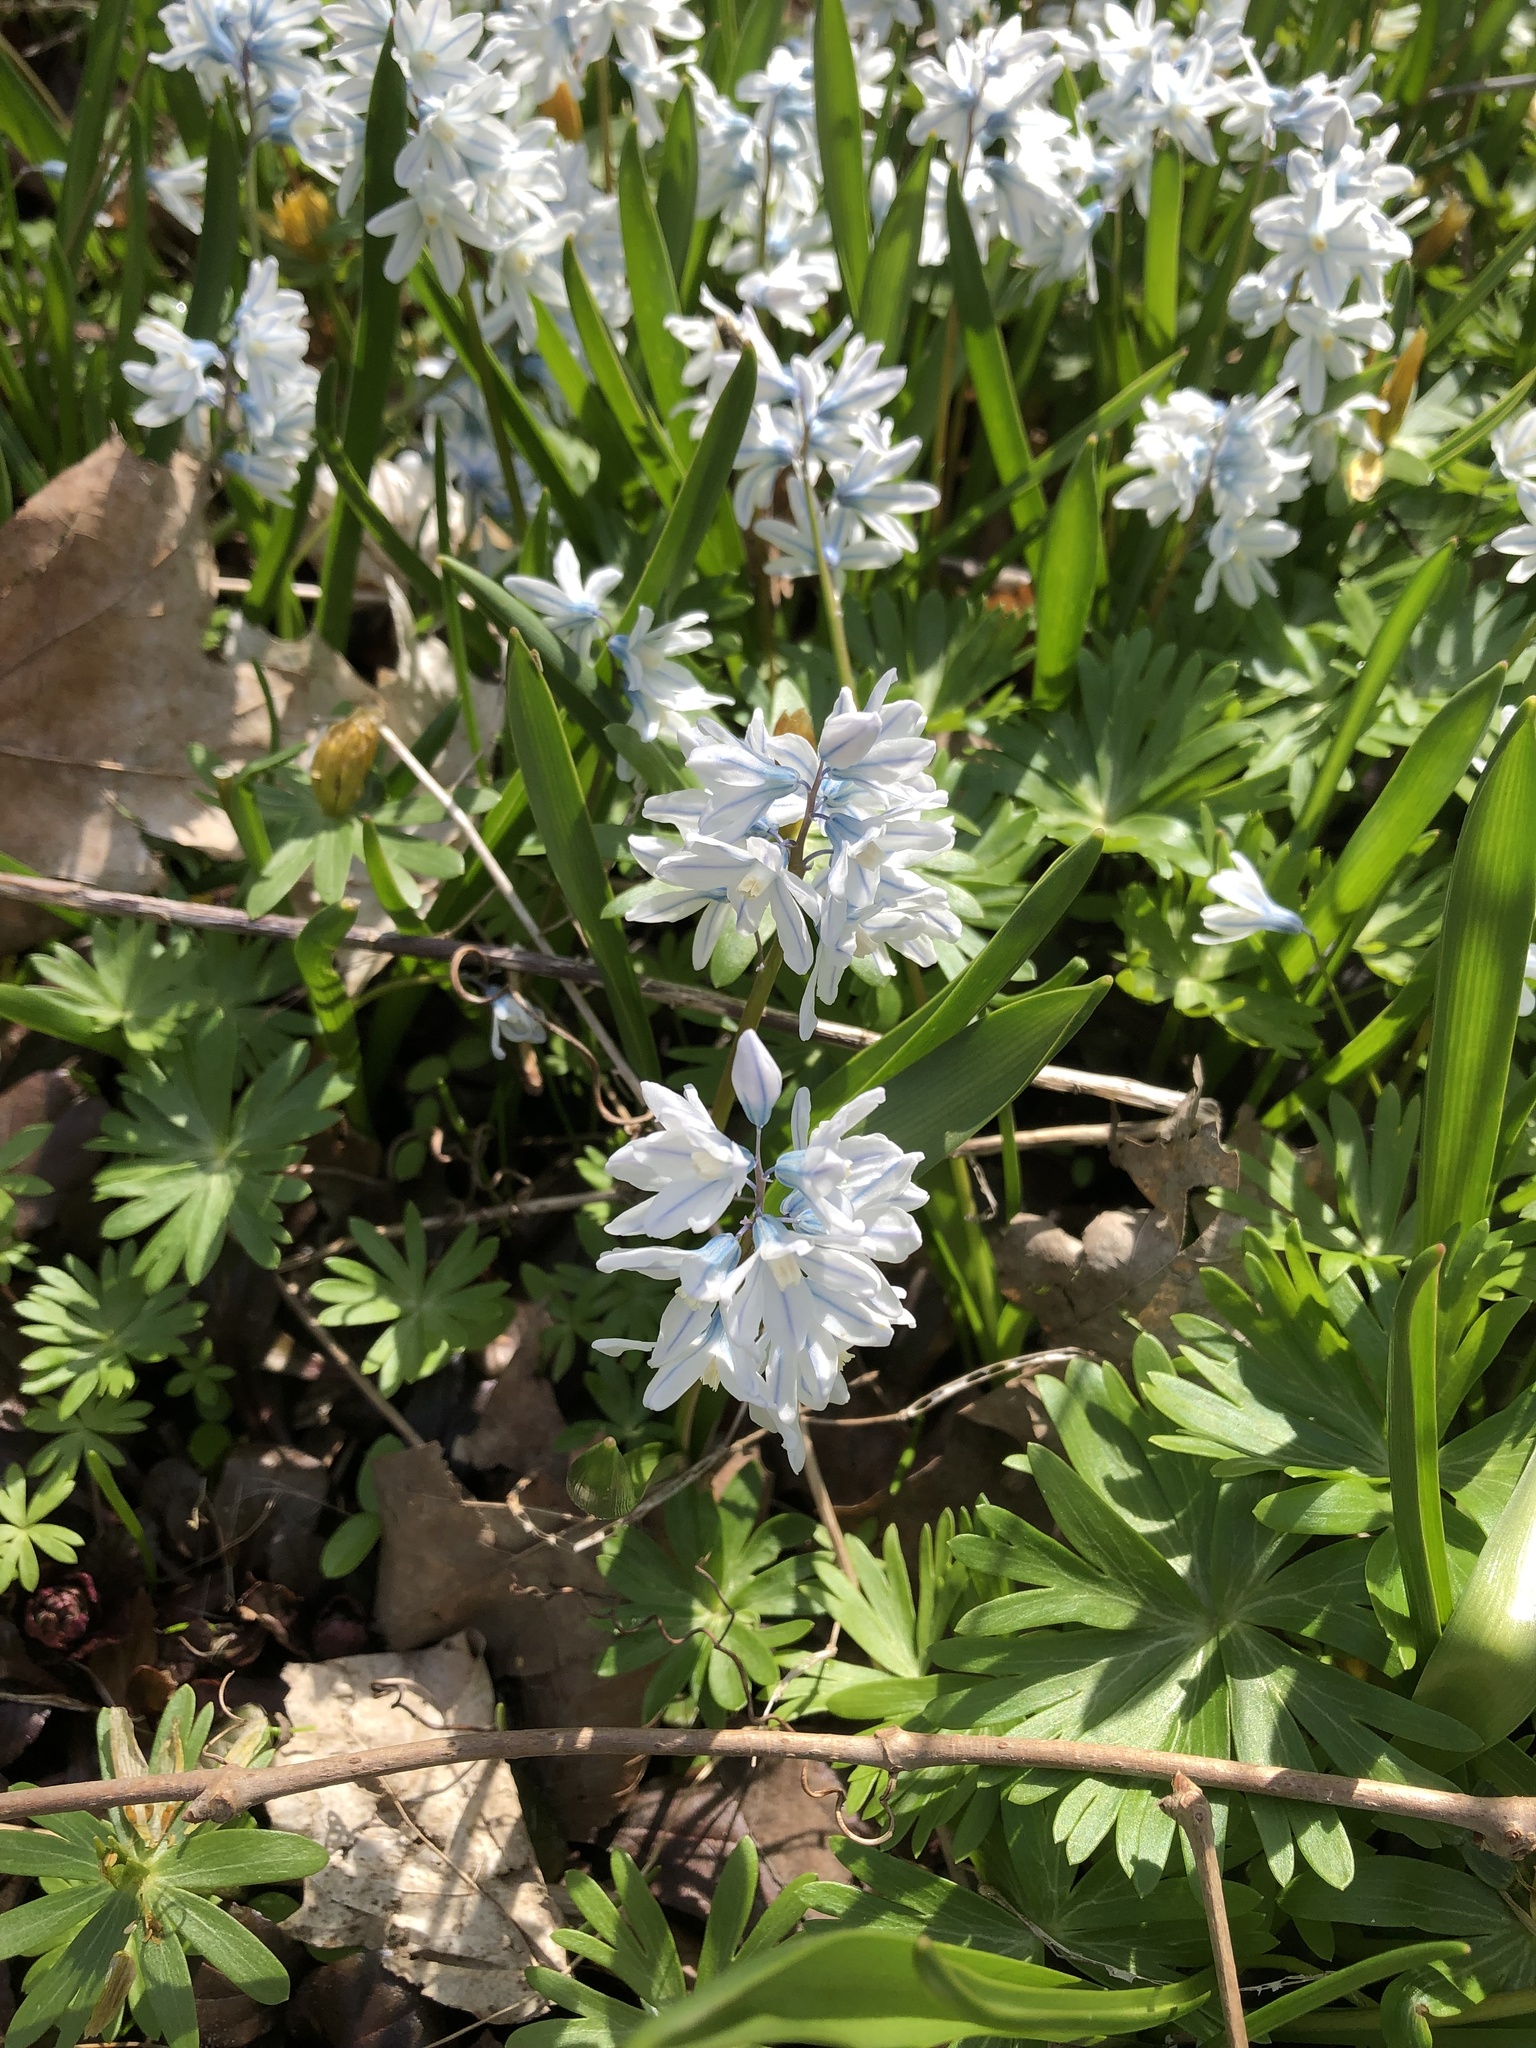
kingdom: Plantae
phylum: Tracheophyta
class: Liliopsida
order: Asparagales
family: Asparagaceae
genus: Puschkinia
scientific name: Puschkinia scilloides
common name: Striped squill
